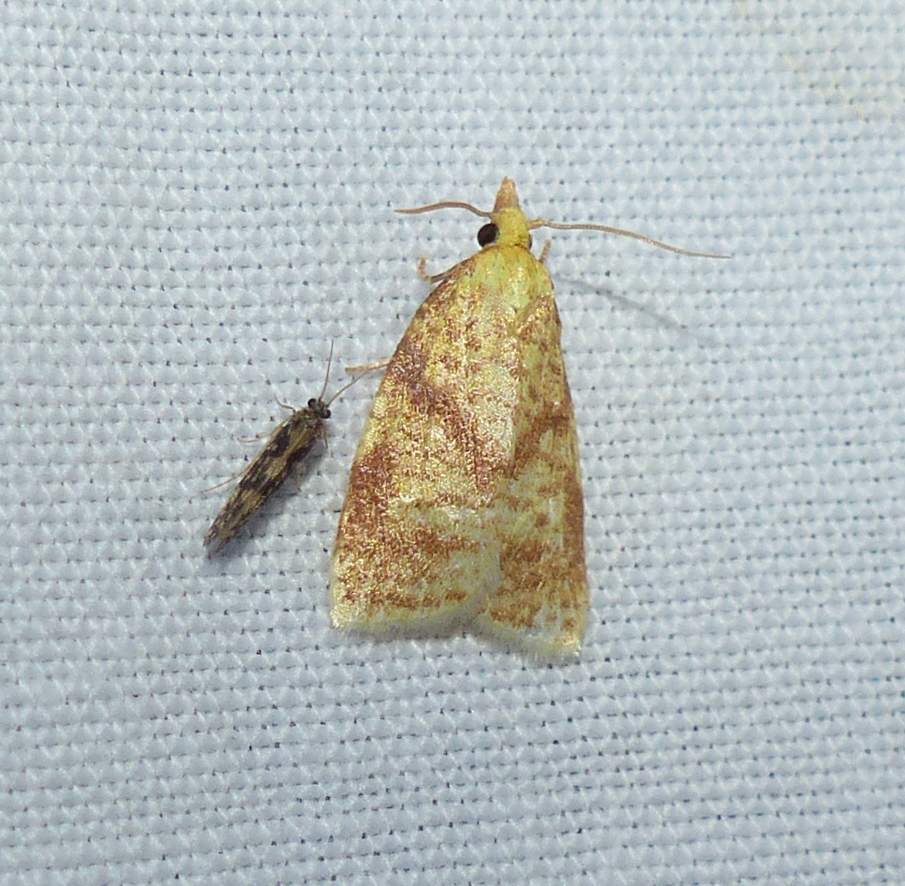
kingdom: Animalia
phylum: Arthropoda
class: Insecta
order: Lepidoptera
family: Tortricidae
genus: Cenopis
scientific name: Cenopis pettitana
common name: Maple-basswood leafroller moth
